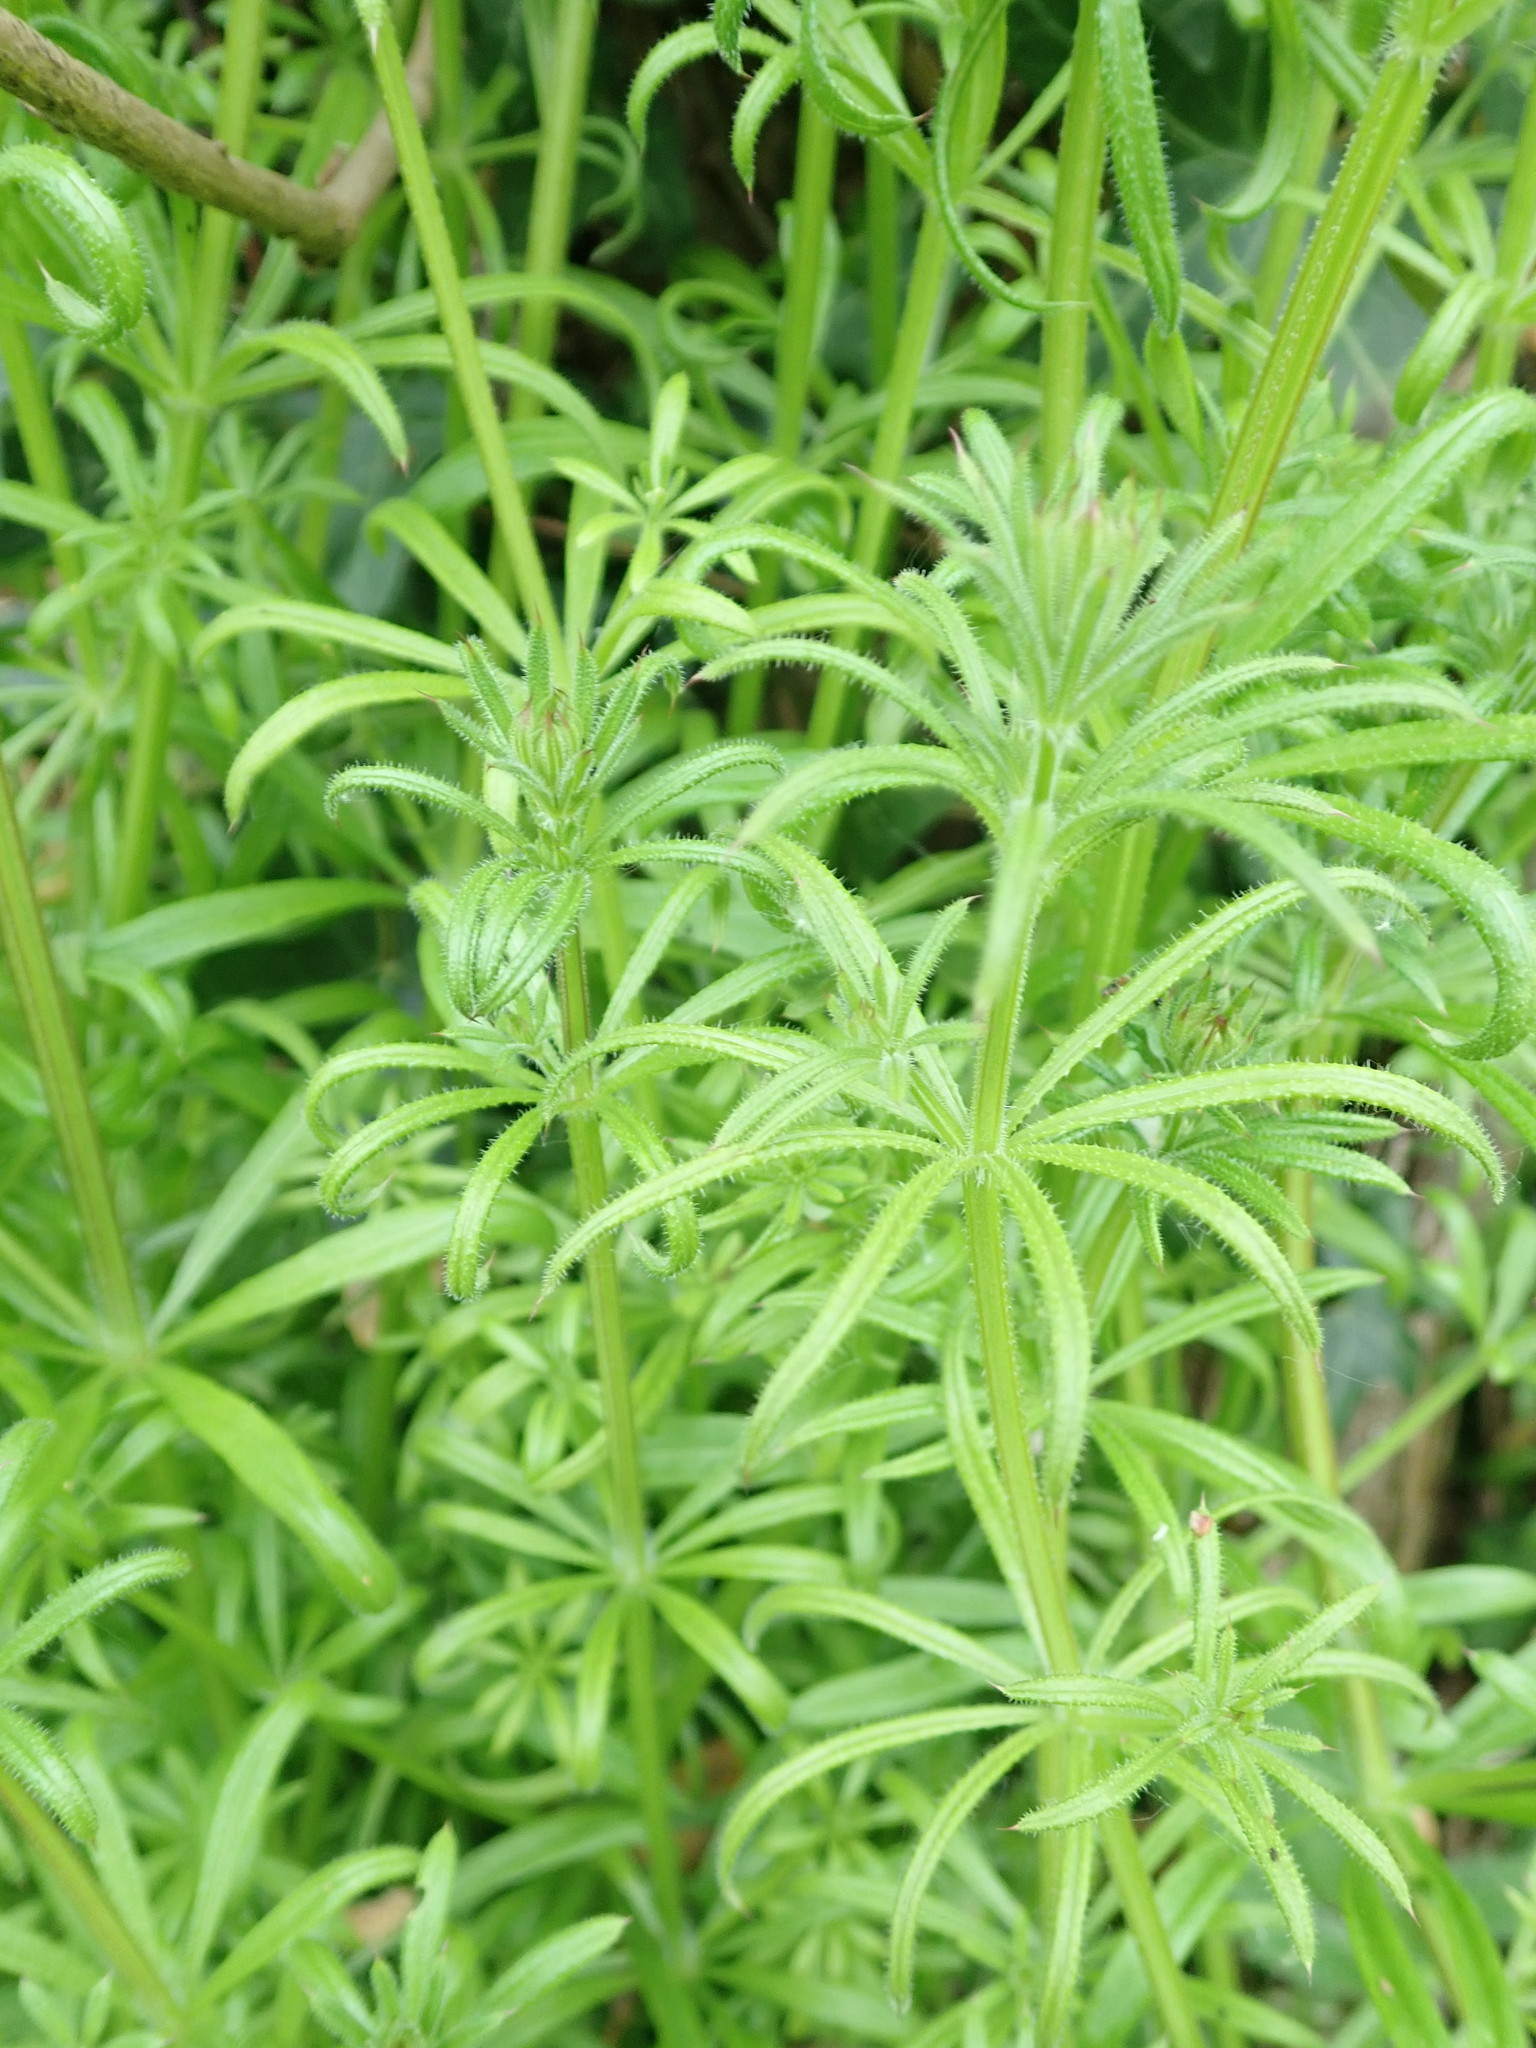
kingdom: Plantae
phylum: Tracheophyta
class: Magnoliopsida
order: Gentianales
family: Rubiaceae
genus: Galium
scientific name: Galium aparine
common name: Cleavers
